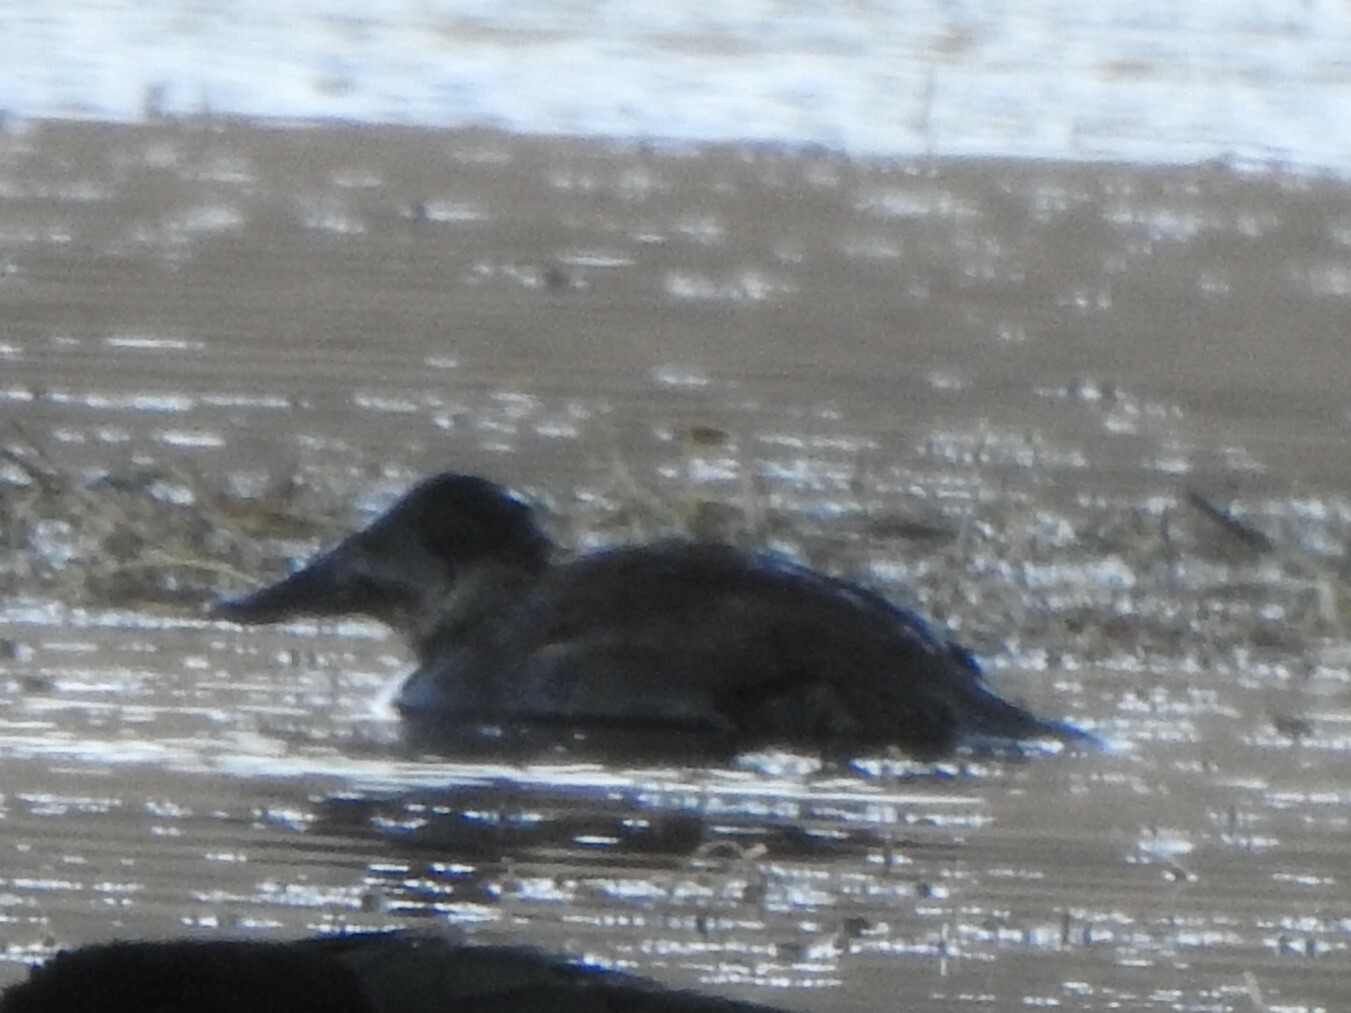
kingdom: Animalia
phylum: Chordata
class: Aves
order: Anseriformes
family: Anatidae
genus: Oxyura
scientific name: Oxyura ferruginea
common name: Andean duck
